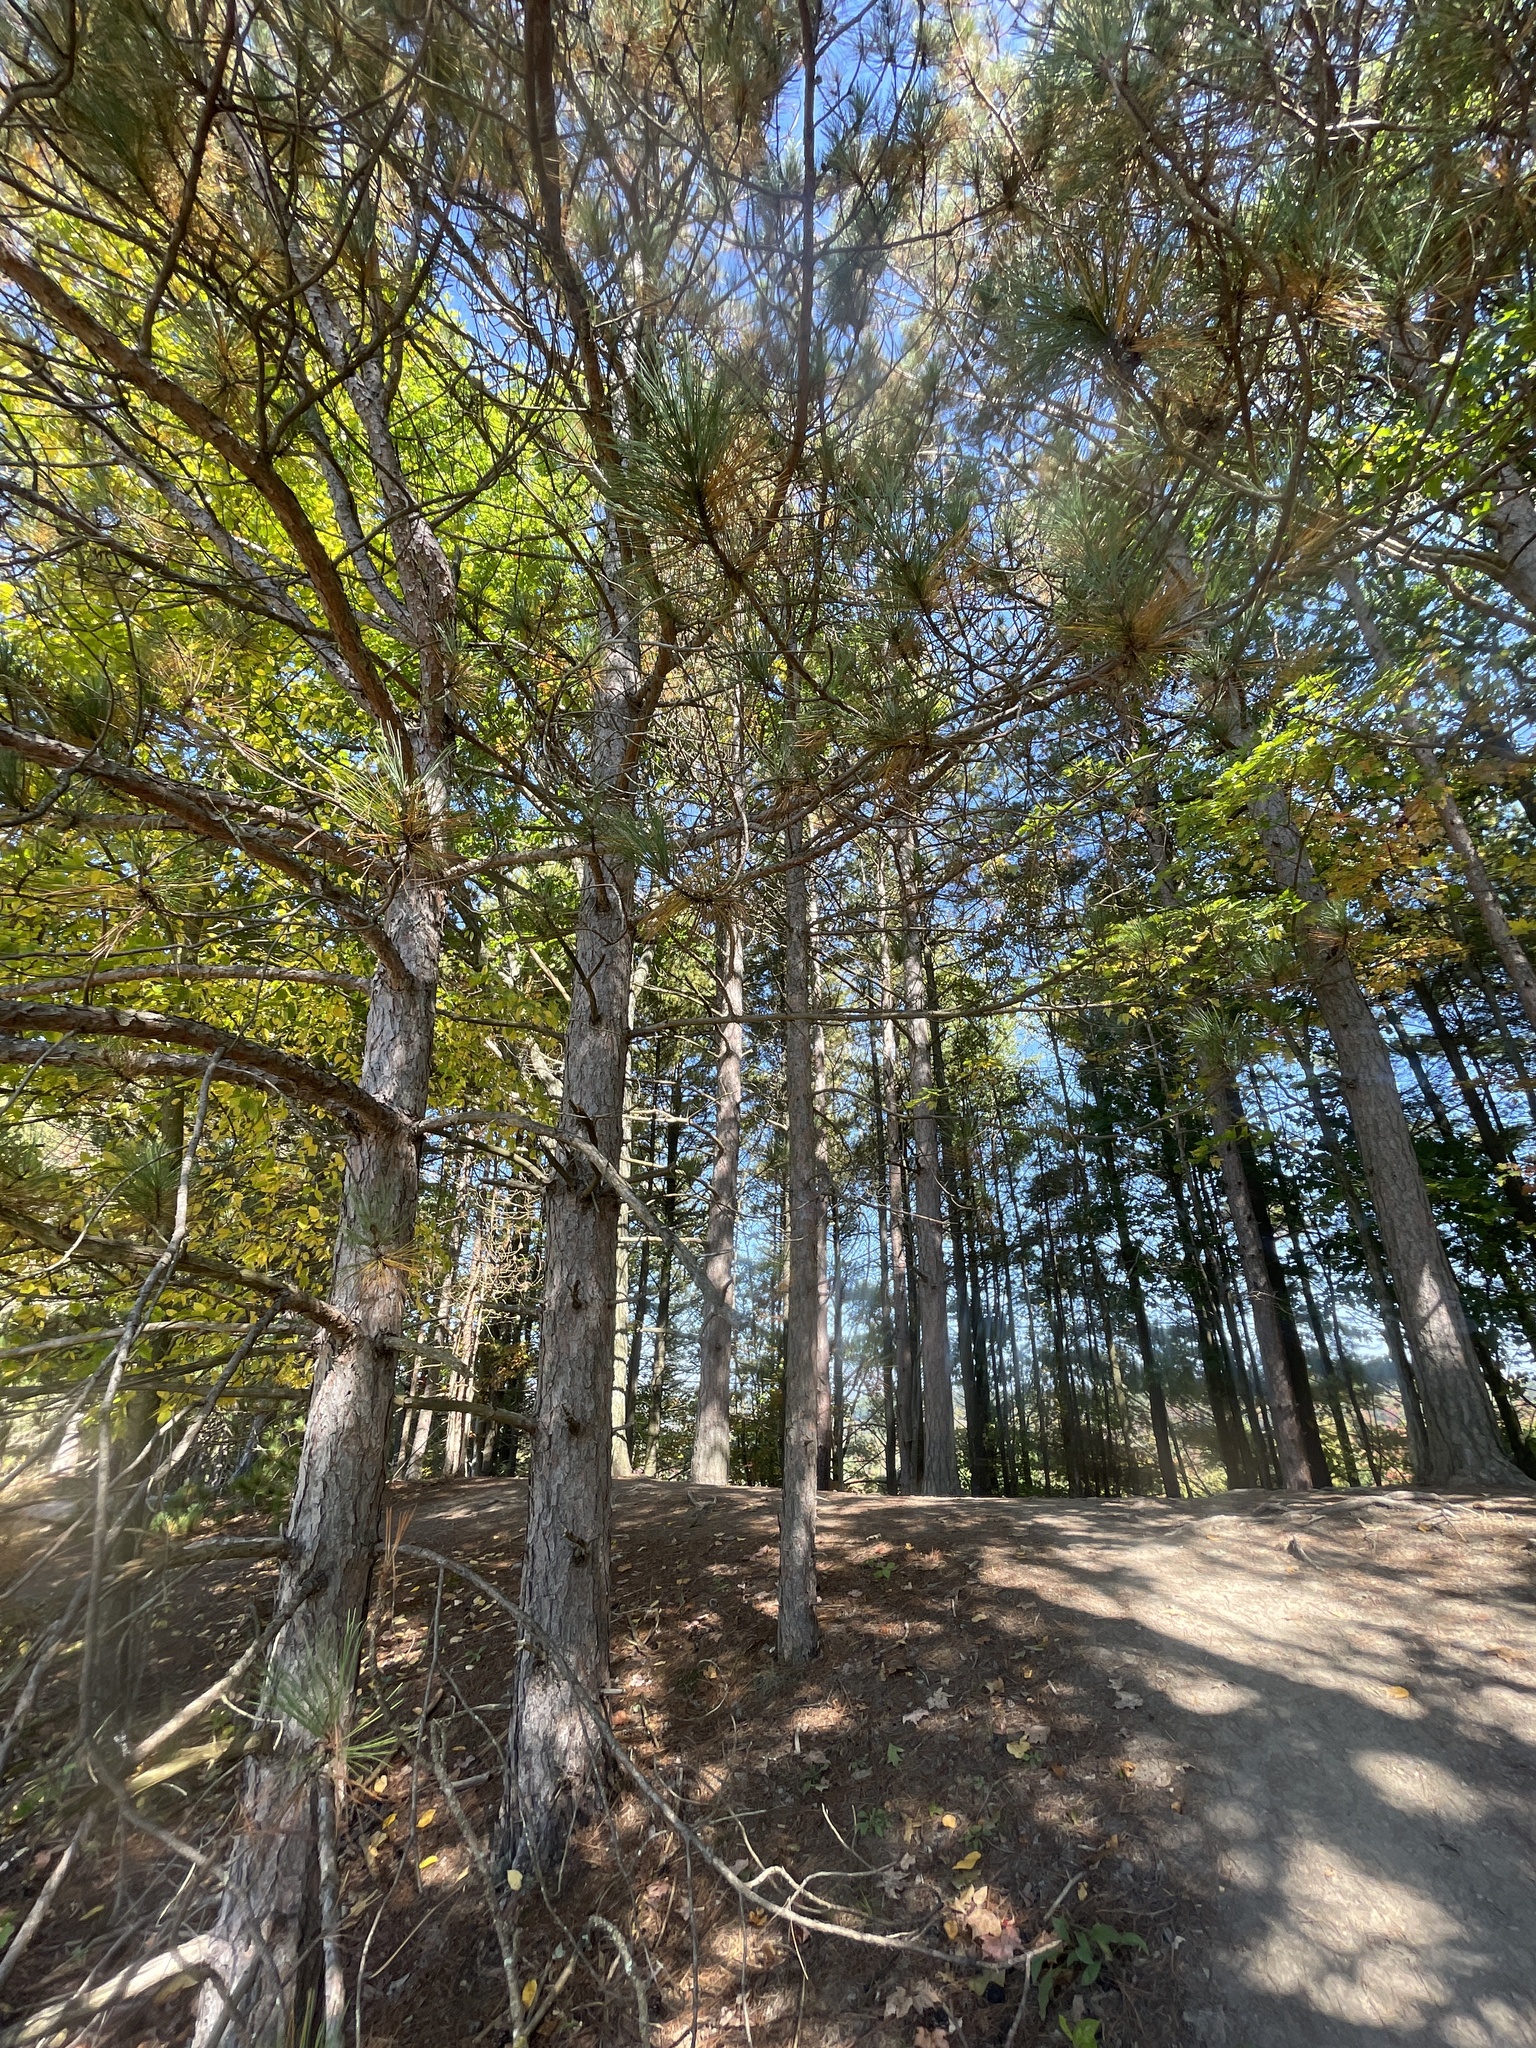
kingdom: Plantae
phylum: Tracheophyta
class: Pinopsida
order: Pinales
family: Pinaceae
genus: Pinus
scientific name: Pinus resinosa
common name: Norway pine
